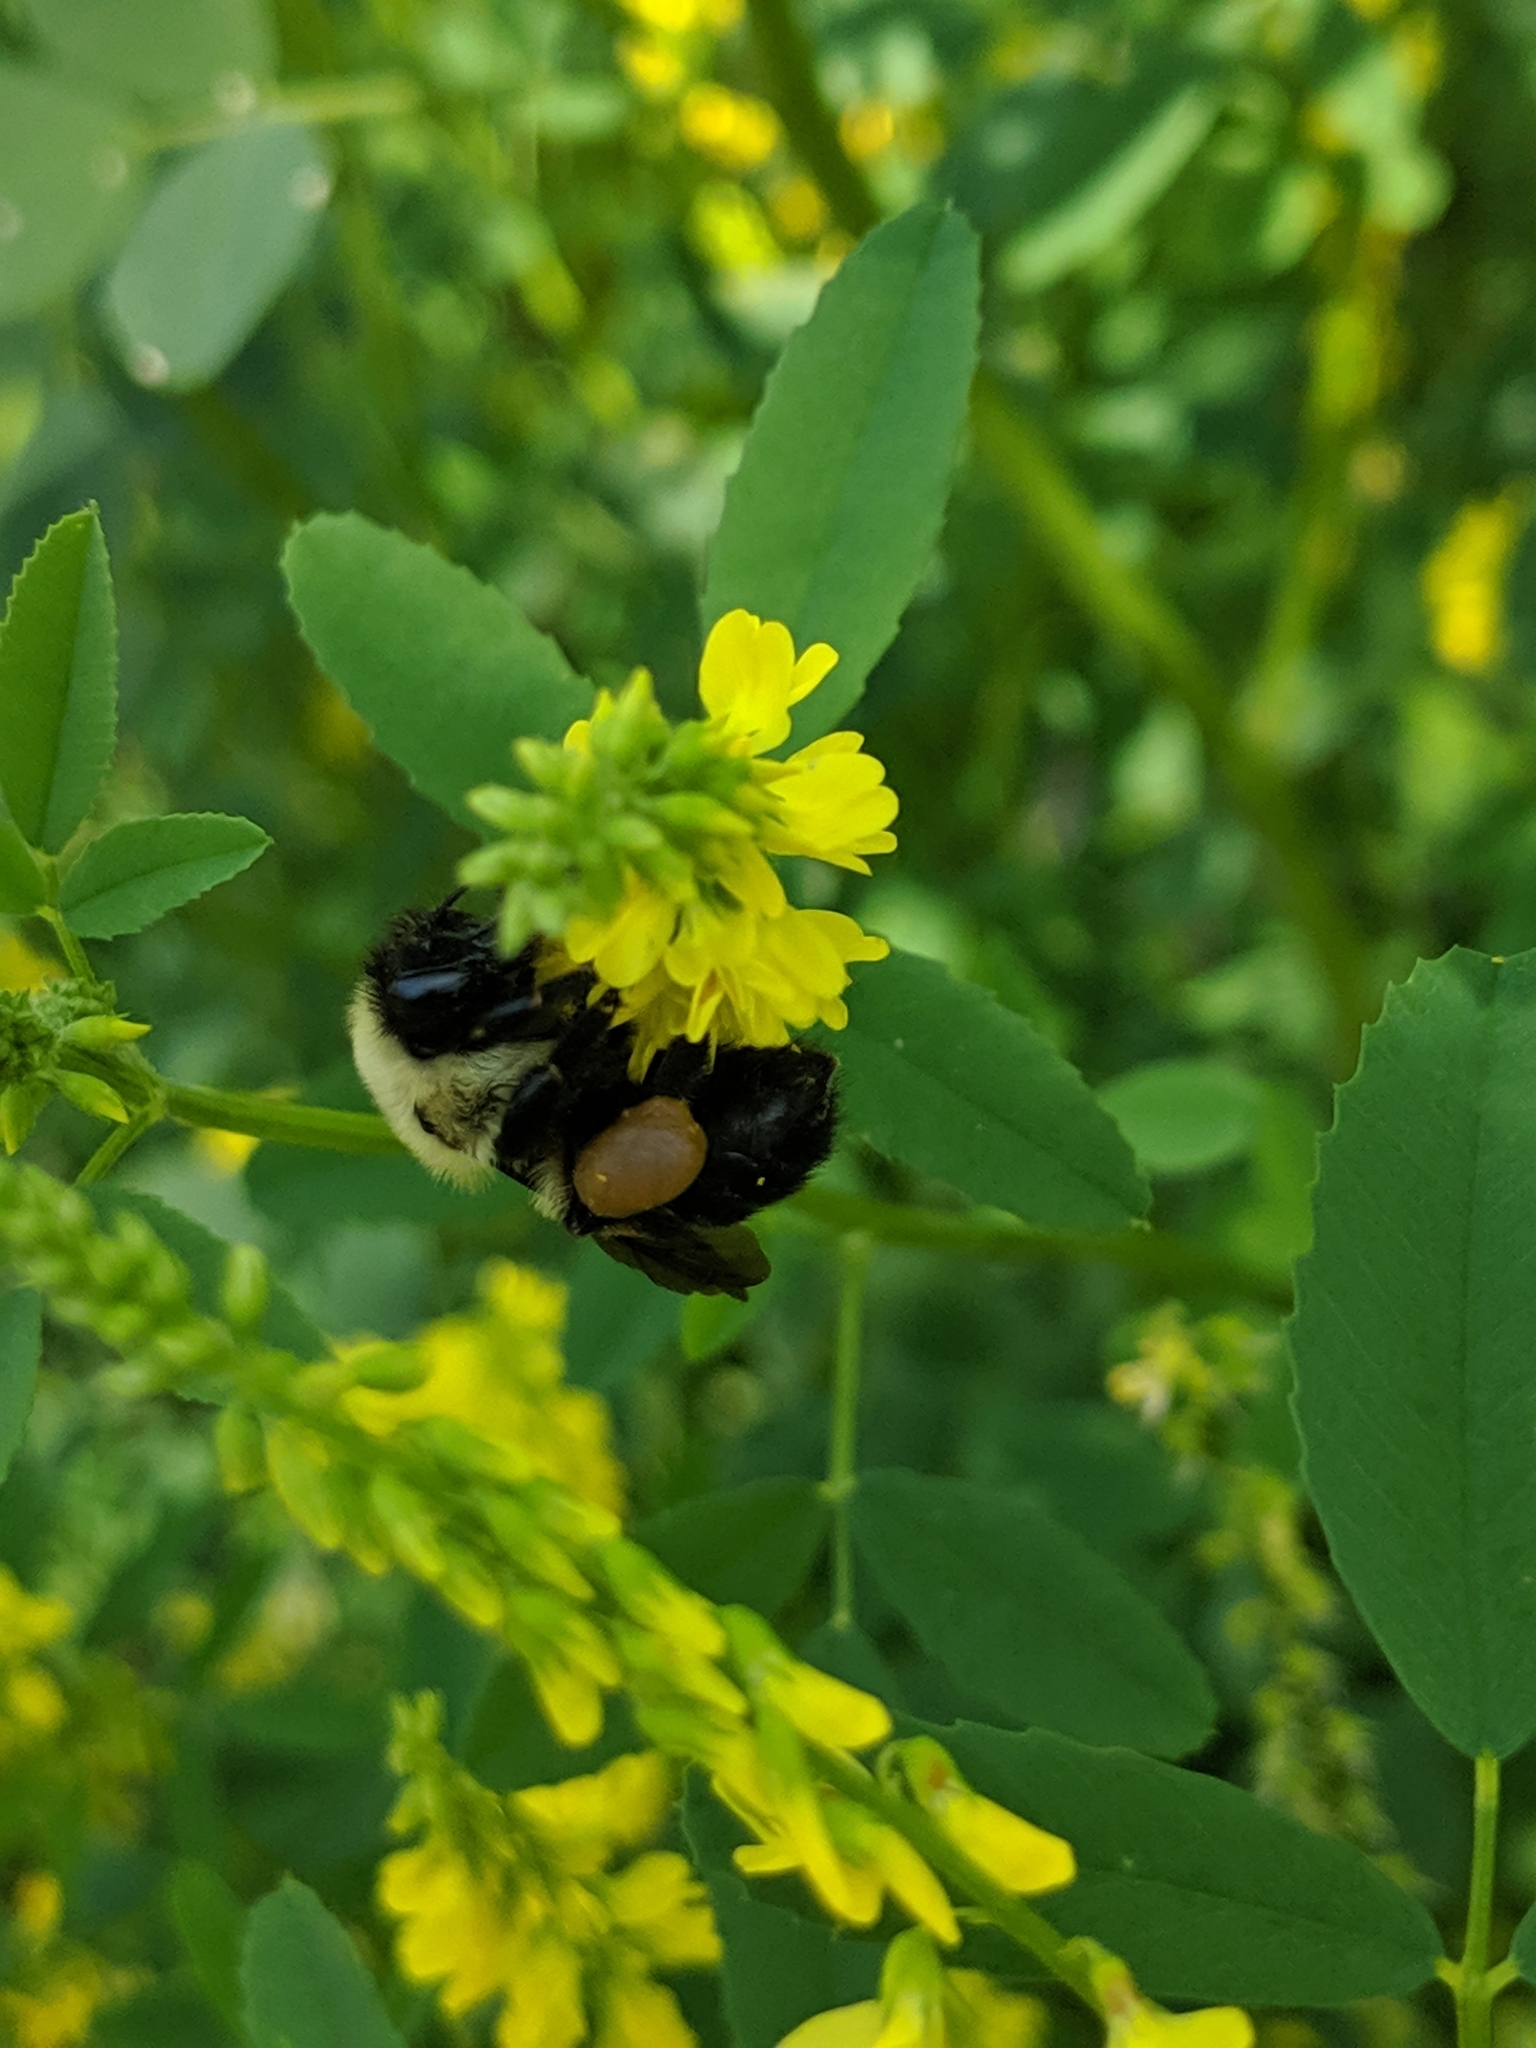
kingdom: Animalia
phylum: Arthropoda
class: Insecta
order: Hymenoptera
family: Apidae
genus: Bombus
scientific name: Bombus griseocollis
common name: Brown-belted bumble bee
